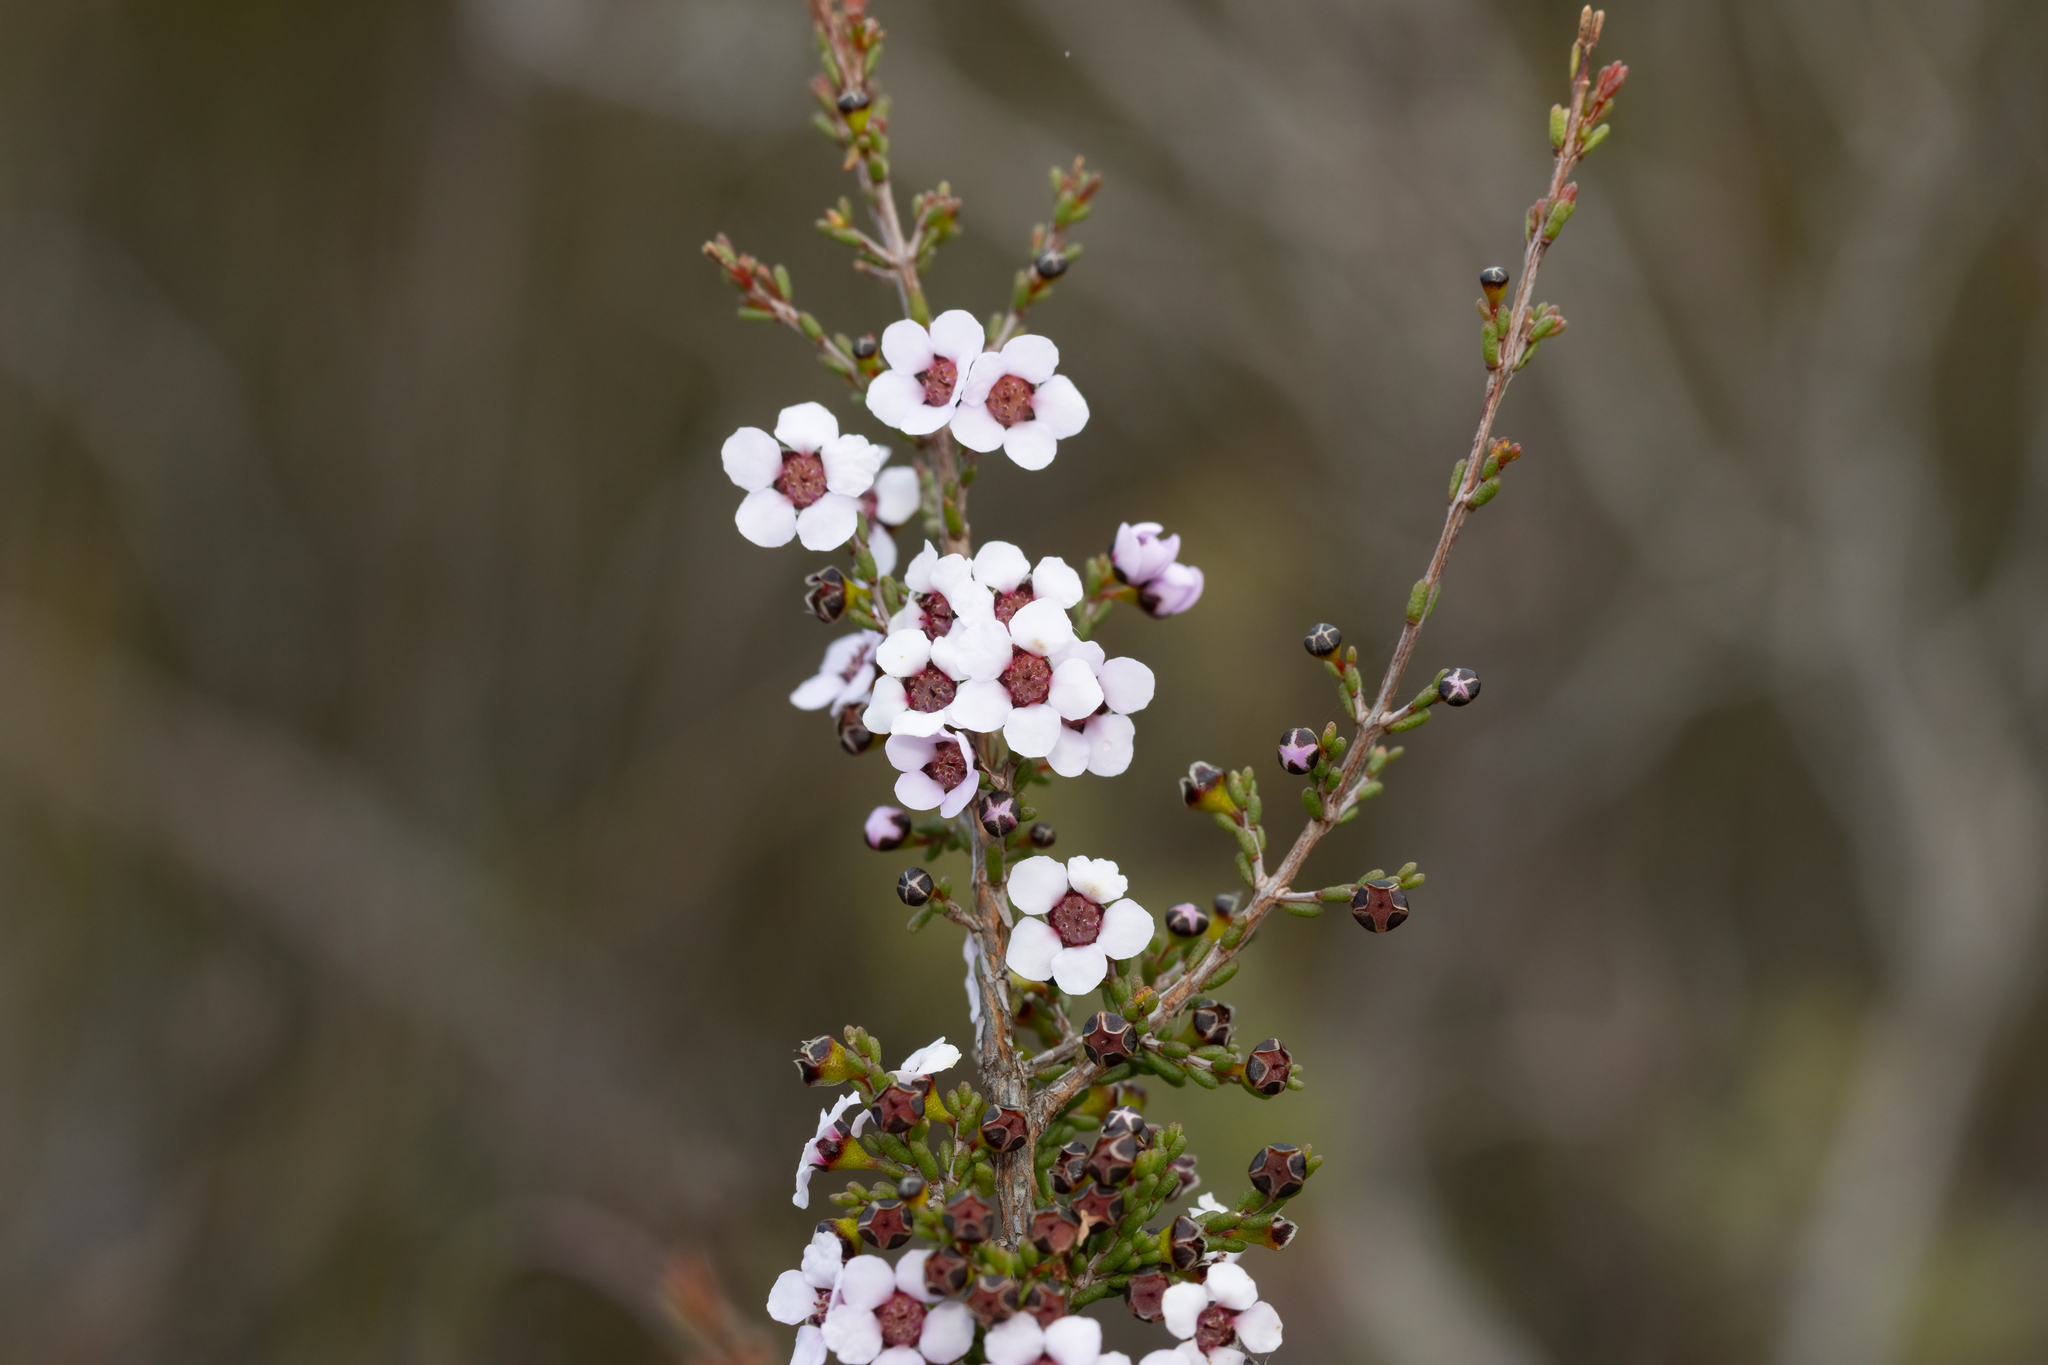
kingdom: Plantae
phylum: Tracheophyta
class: Magnoliopsida
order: Myrtales
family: Myrtaceae
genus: Rinzia
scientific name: Rinzia orientalis
